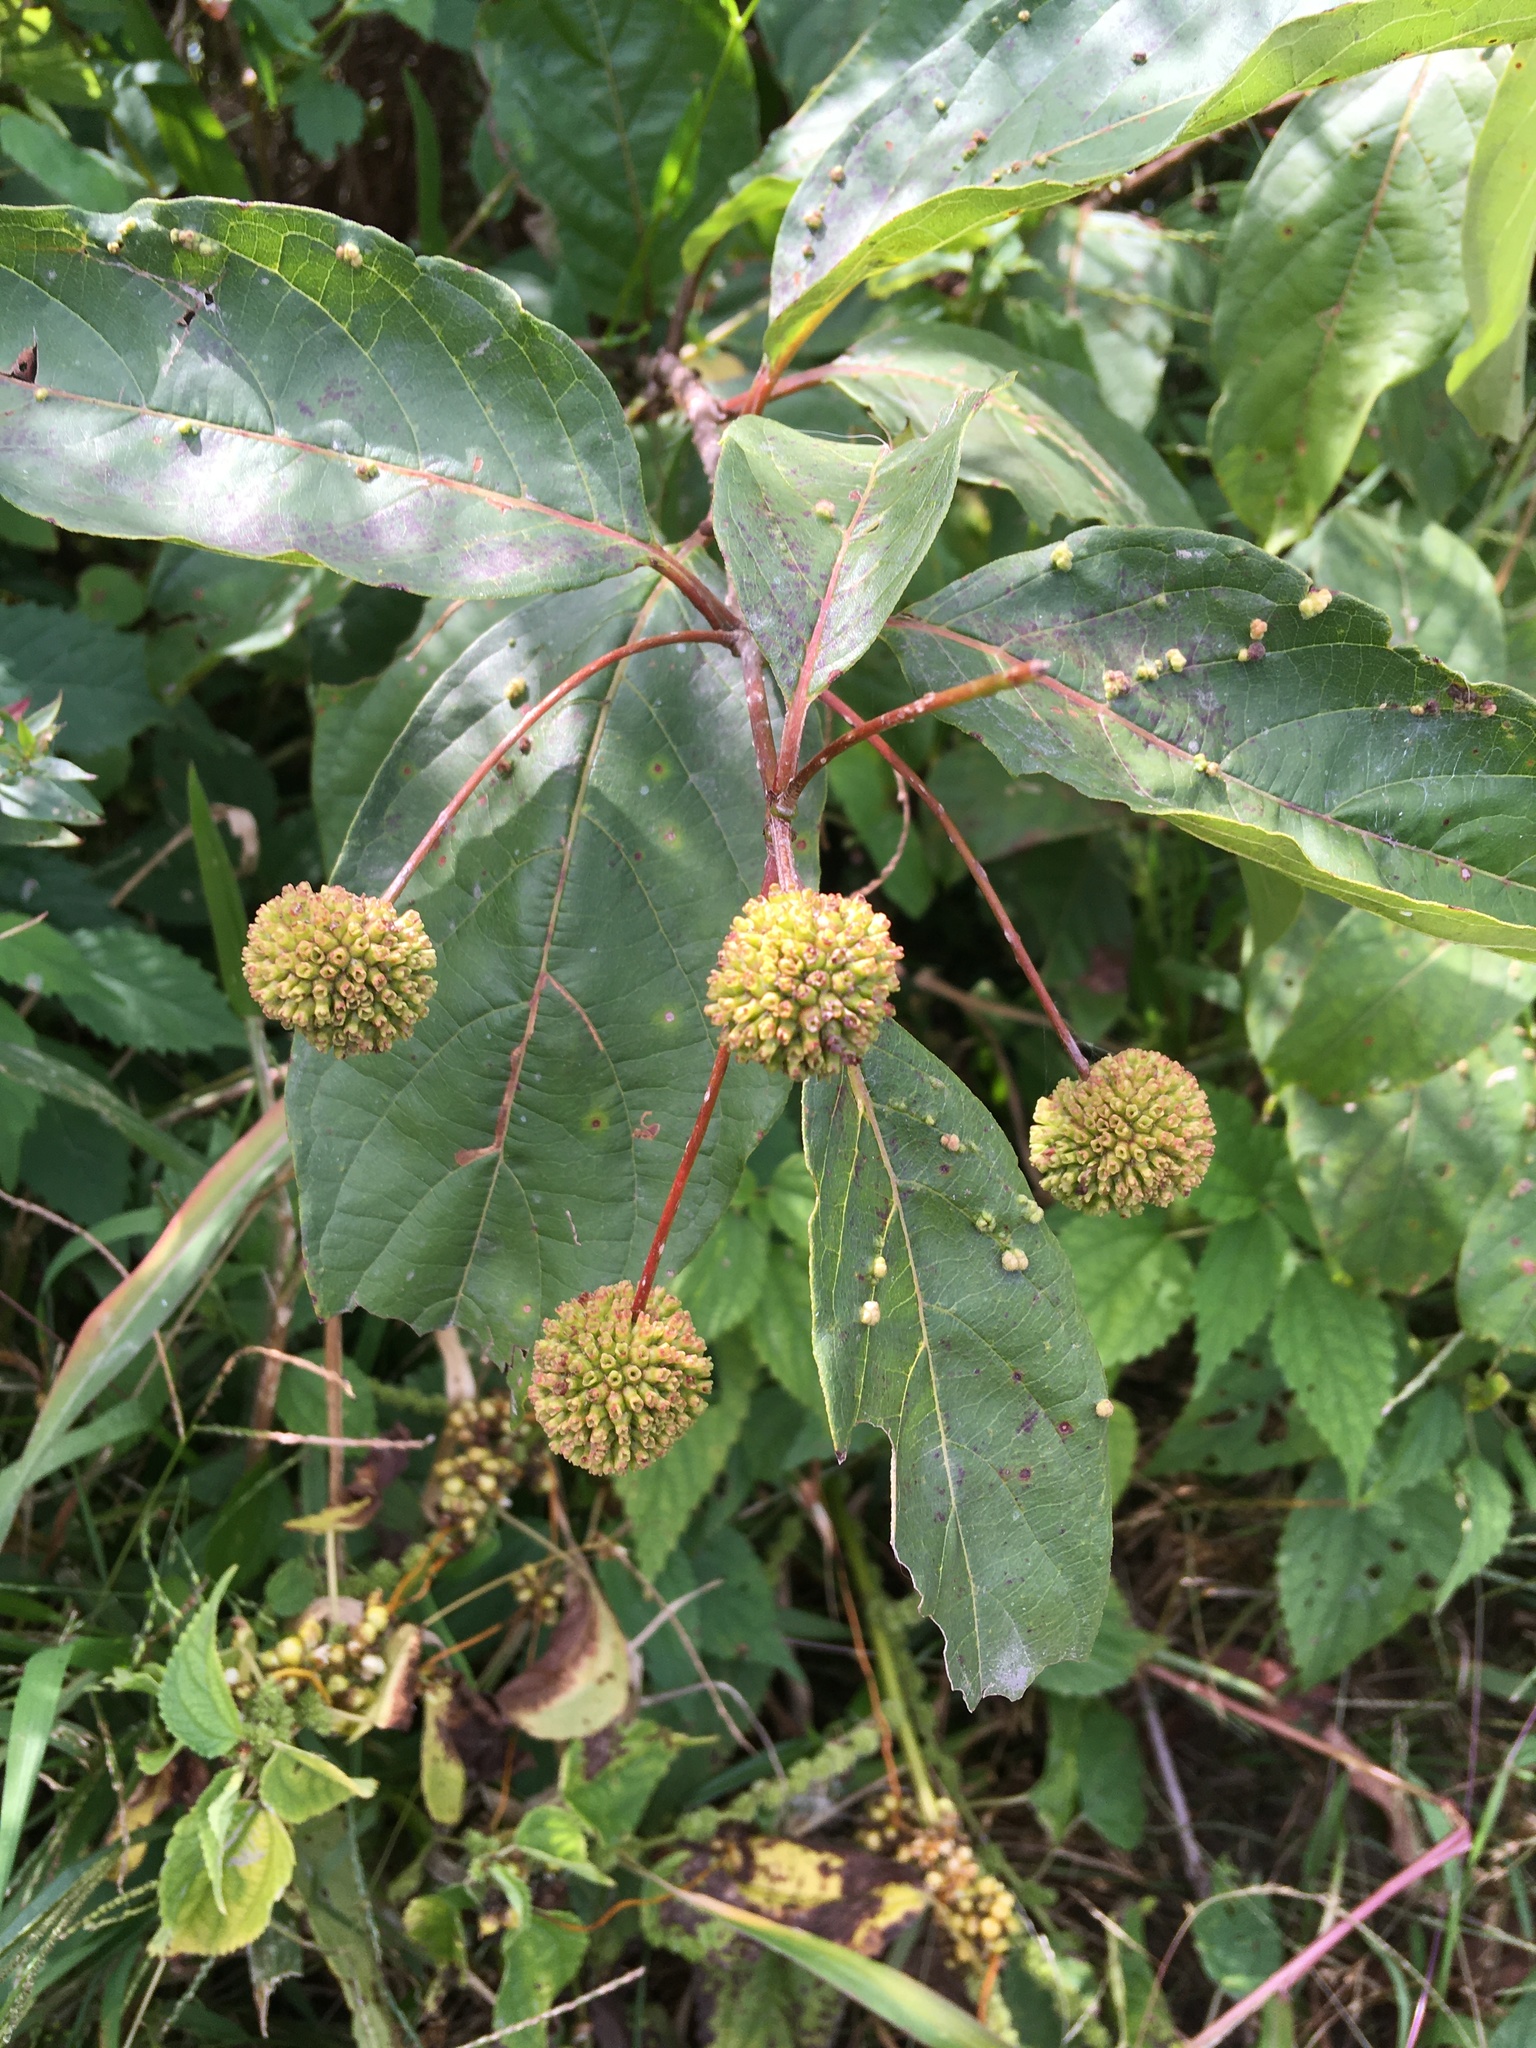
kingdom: Plantae
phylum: Tracheophyta
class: Magnoliopsida
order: Gentianales
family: Rubiaceae
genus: Cephalanthus
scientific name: Cephalanthus occidentalis
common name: Button-willow
